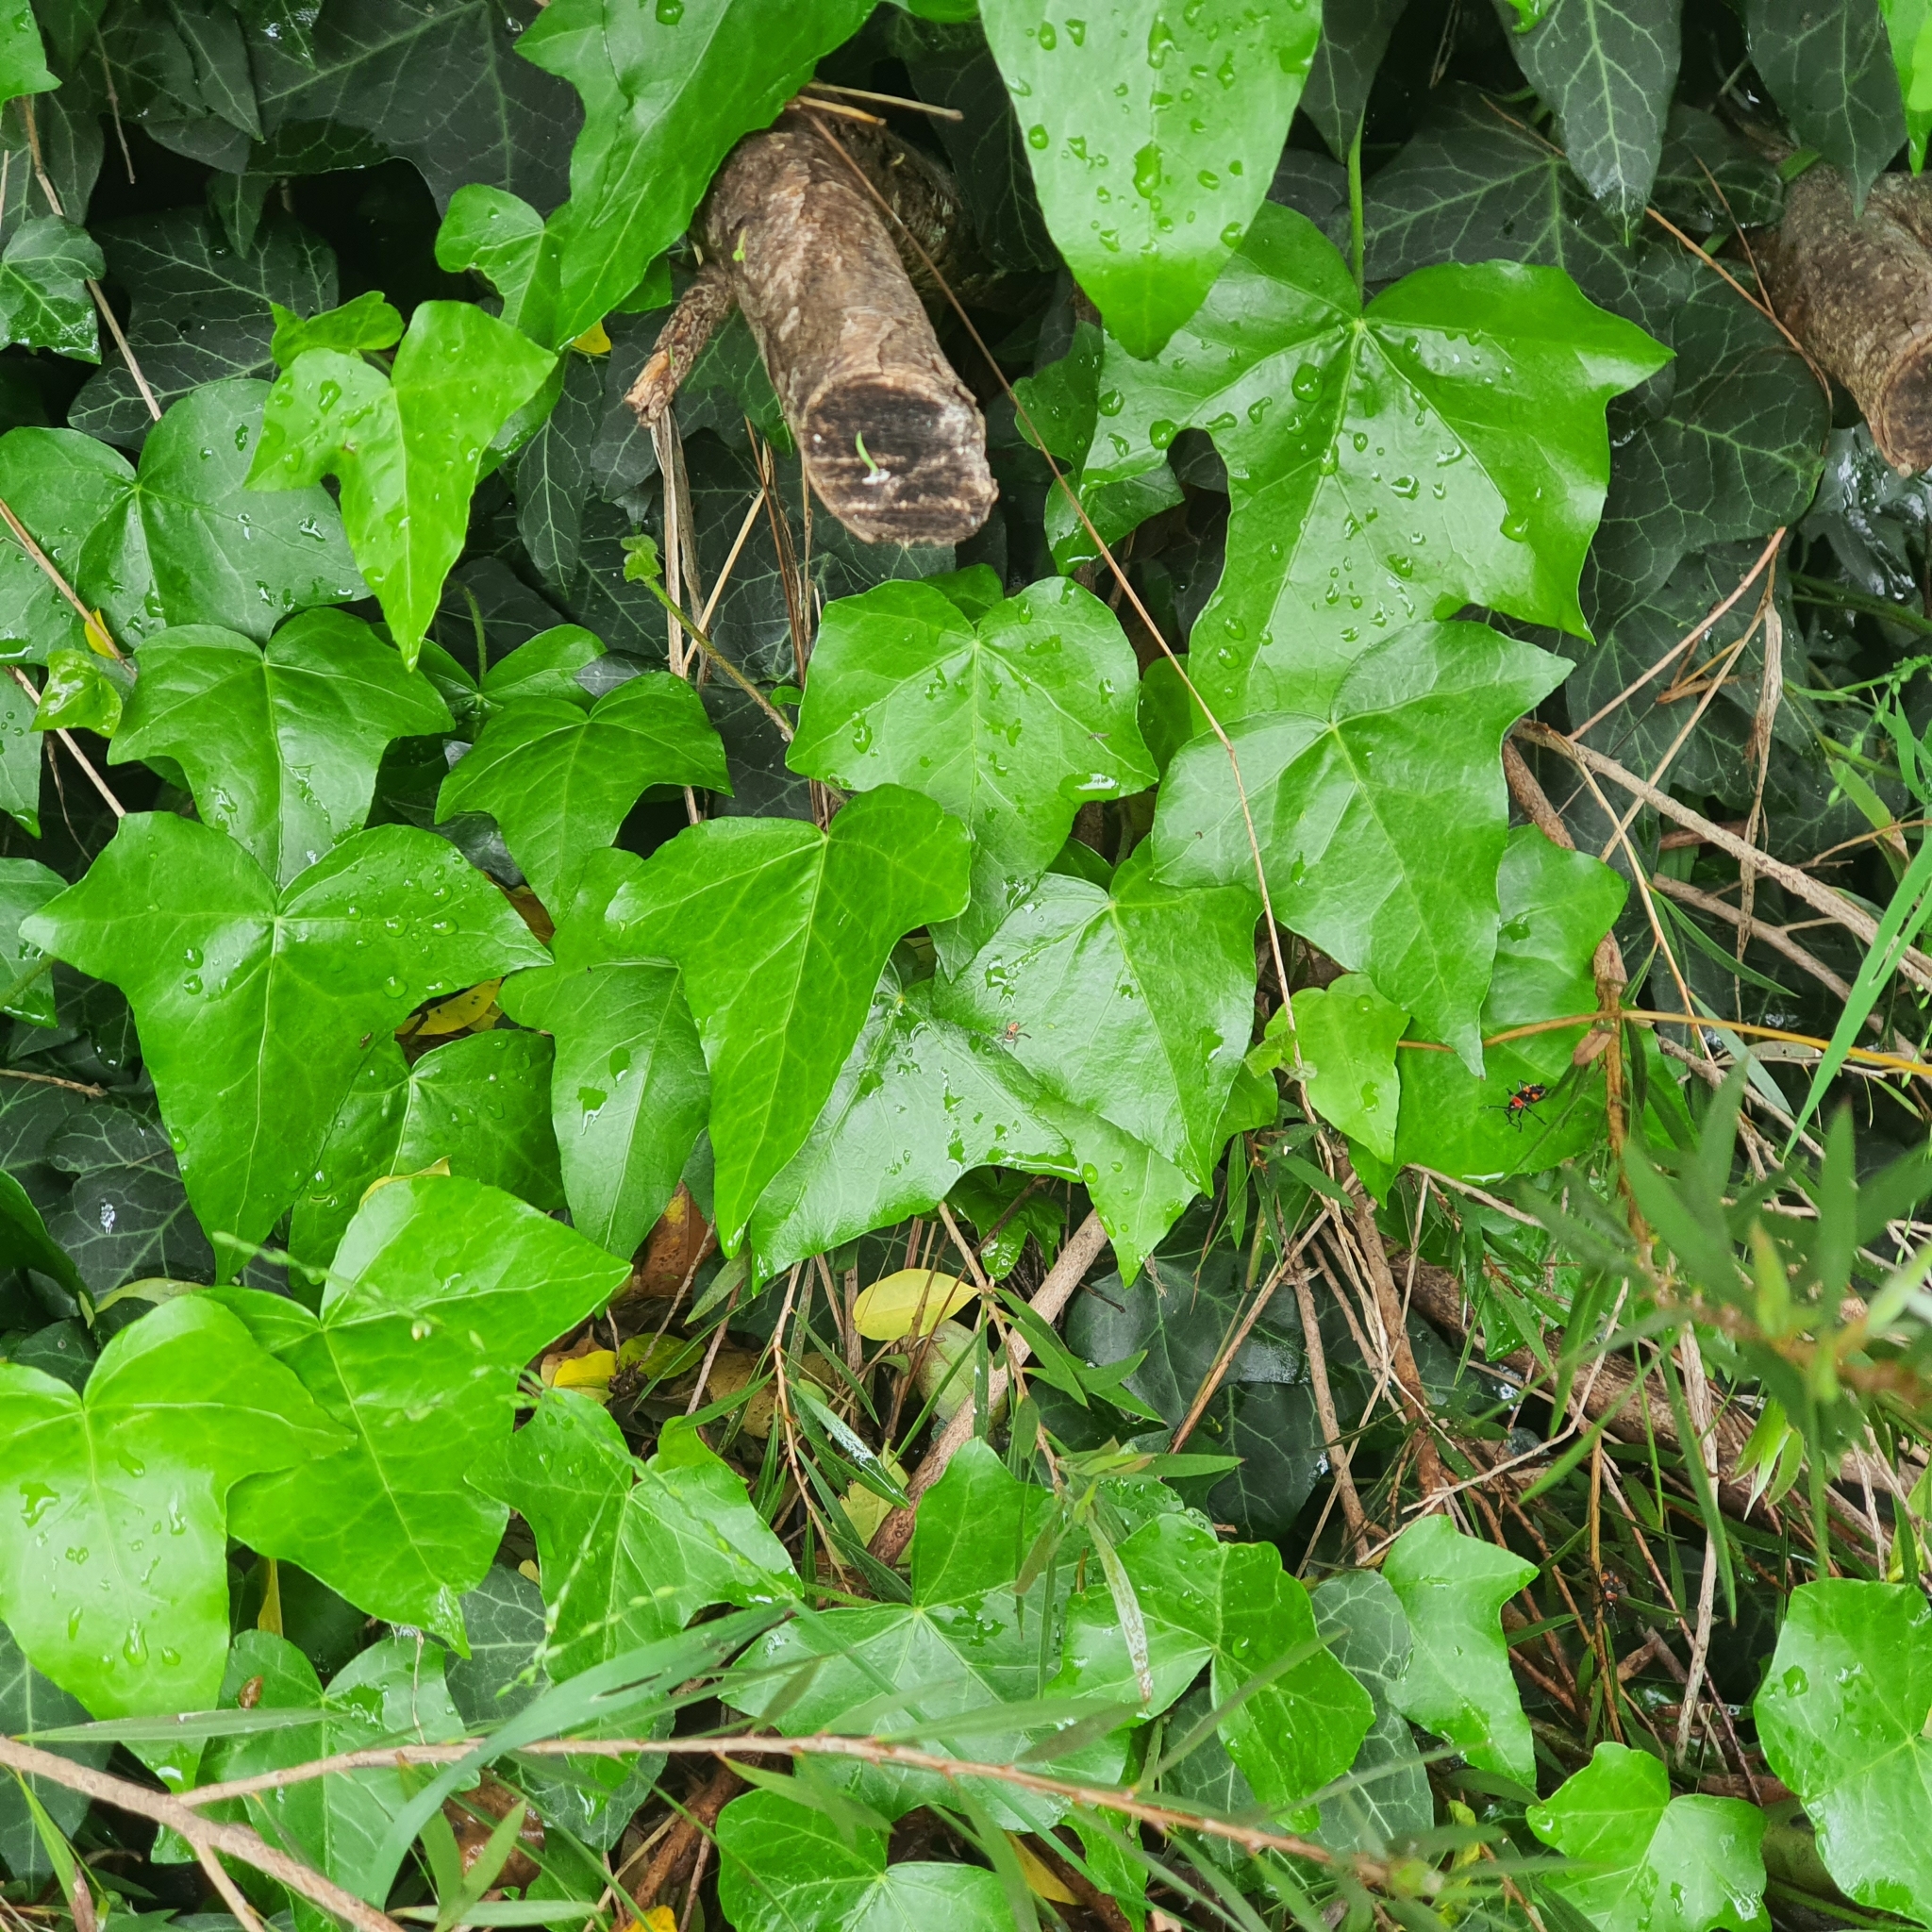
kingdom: Animalia
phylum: Arthropoda
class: Arachnida
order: Araneae
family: Salticidae
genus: Maratus
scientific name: Maratus pavonis
